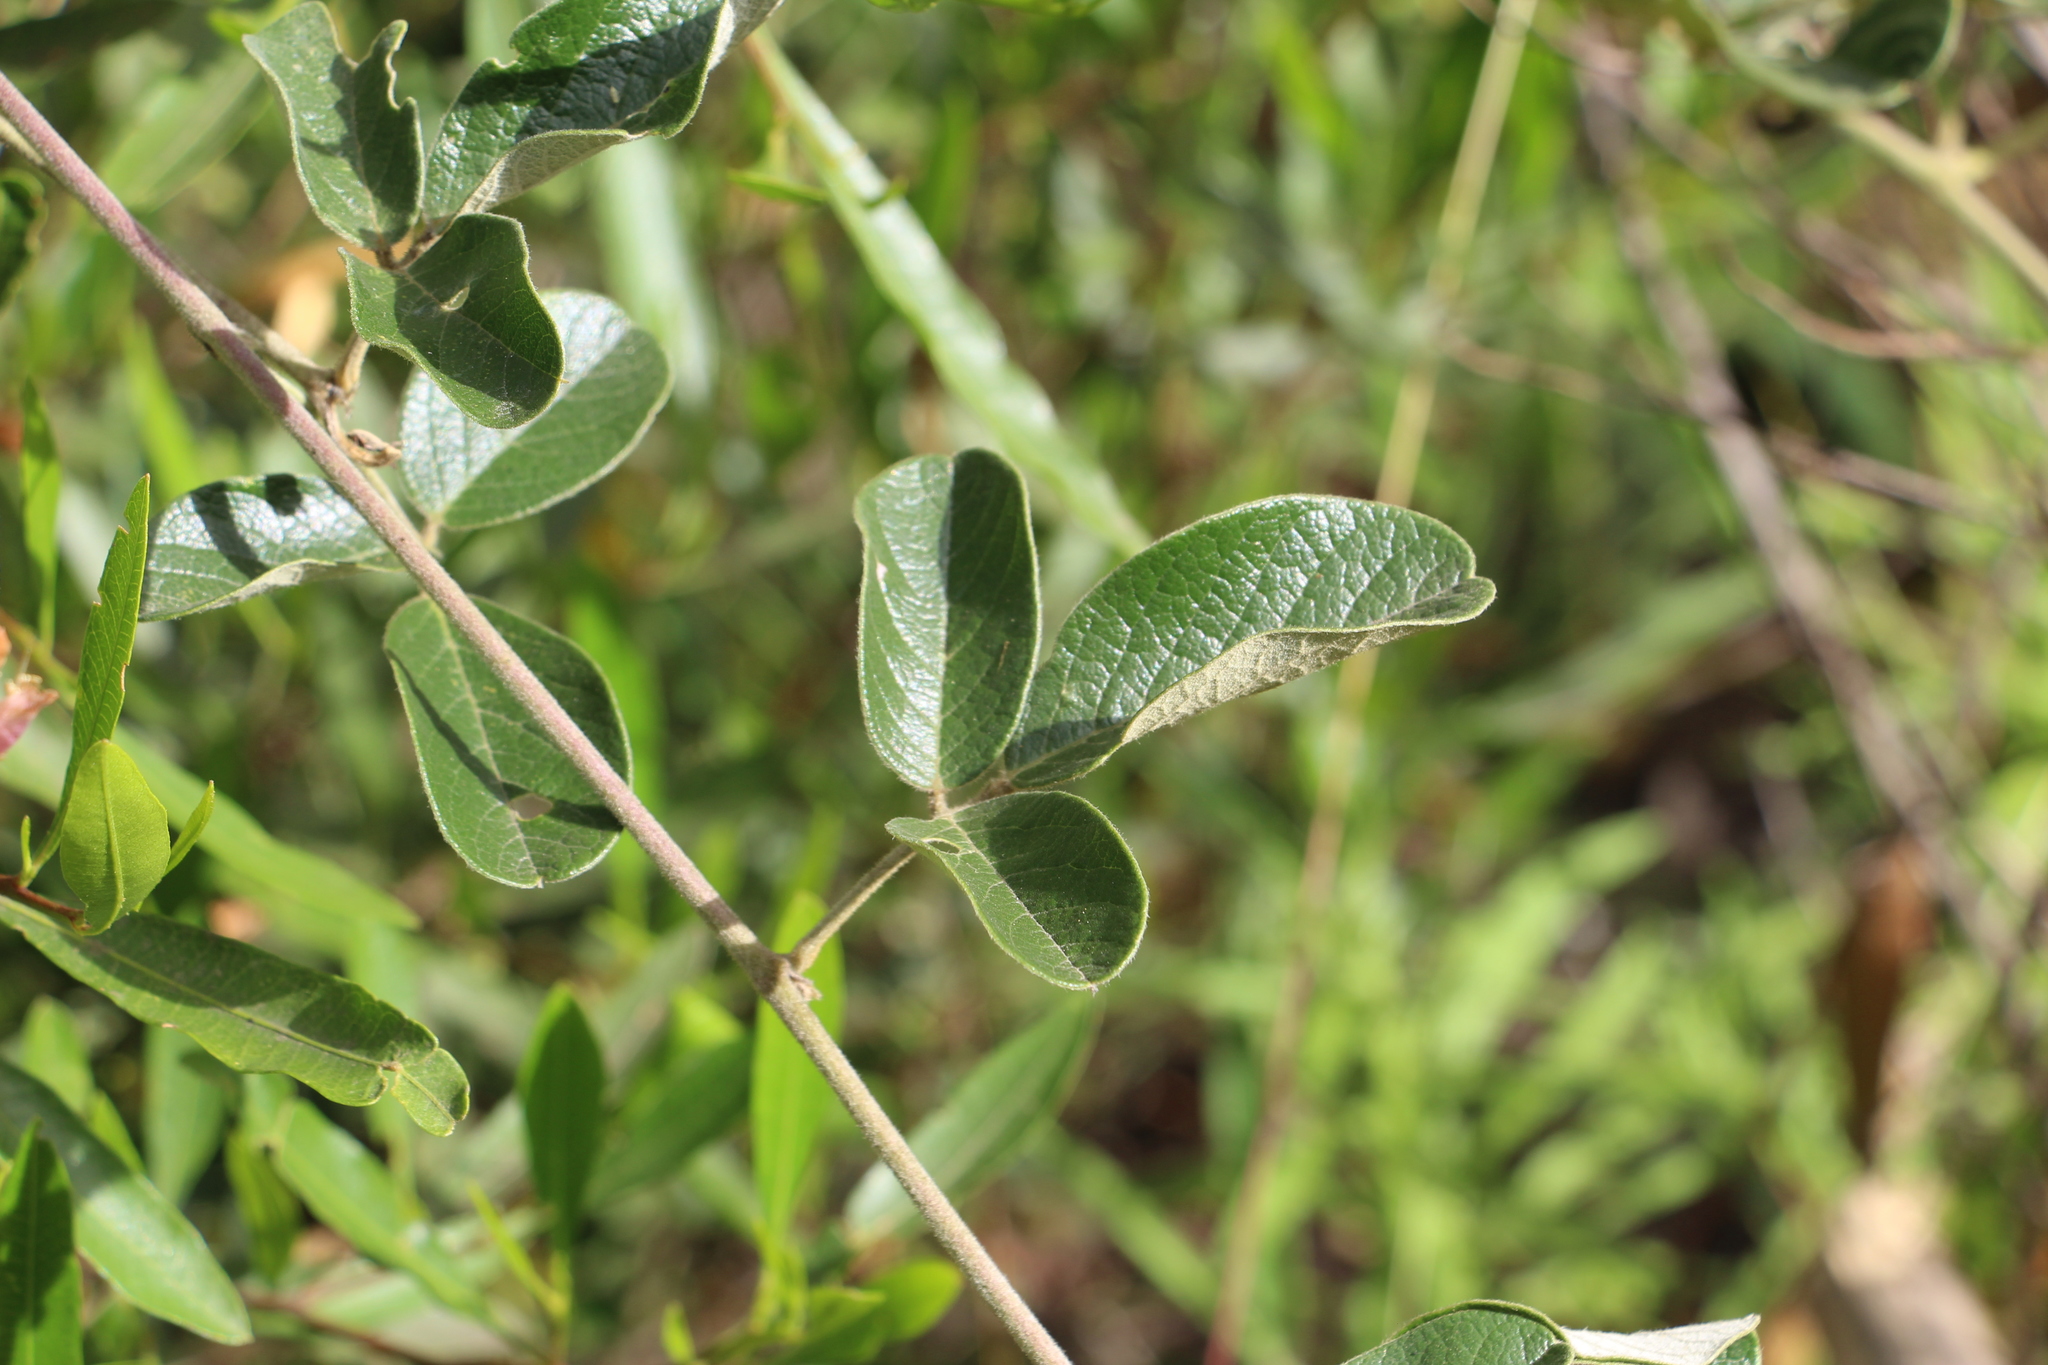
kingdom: Plantae
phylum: Tracheophyta
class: Magnoliopsida
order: Fabales
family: Fabaceae
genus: Galactia
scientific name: Galactia lindenii
